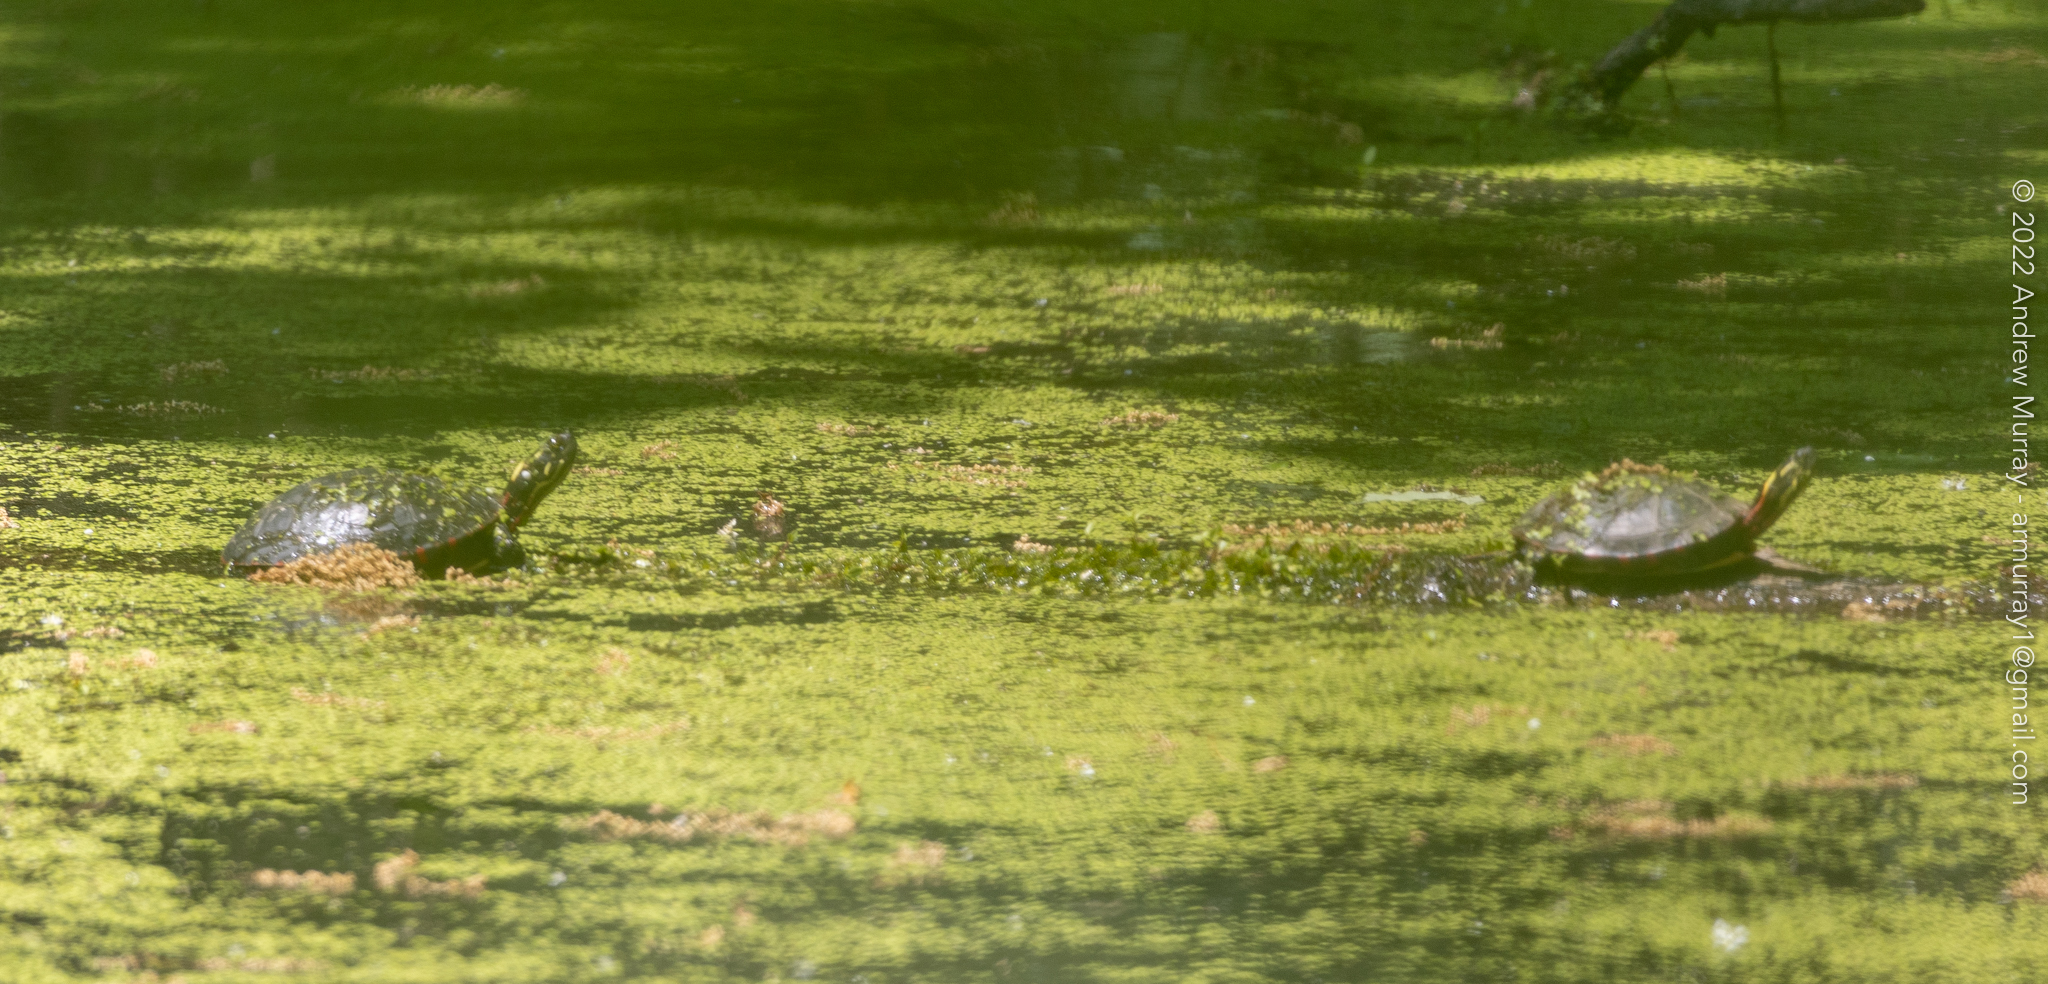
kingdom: Animalia
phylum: Chordata
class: Testudines
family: Emydidae
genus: Chrysemys
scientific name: Chrysemys picta
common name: Painted turtle
